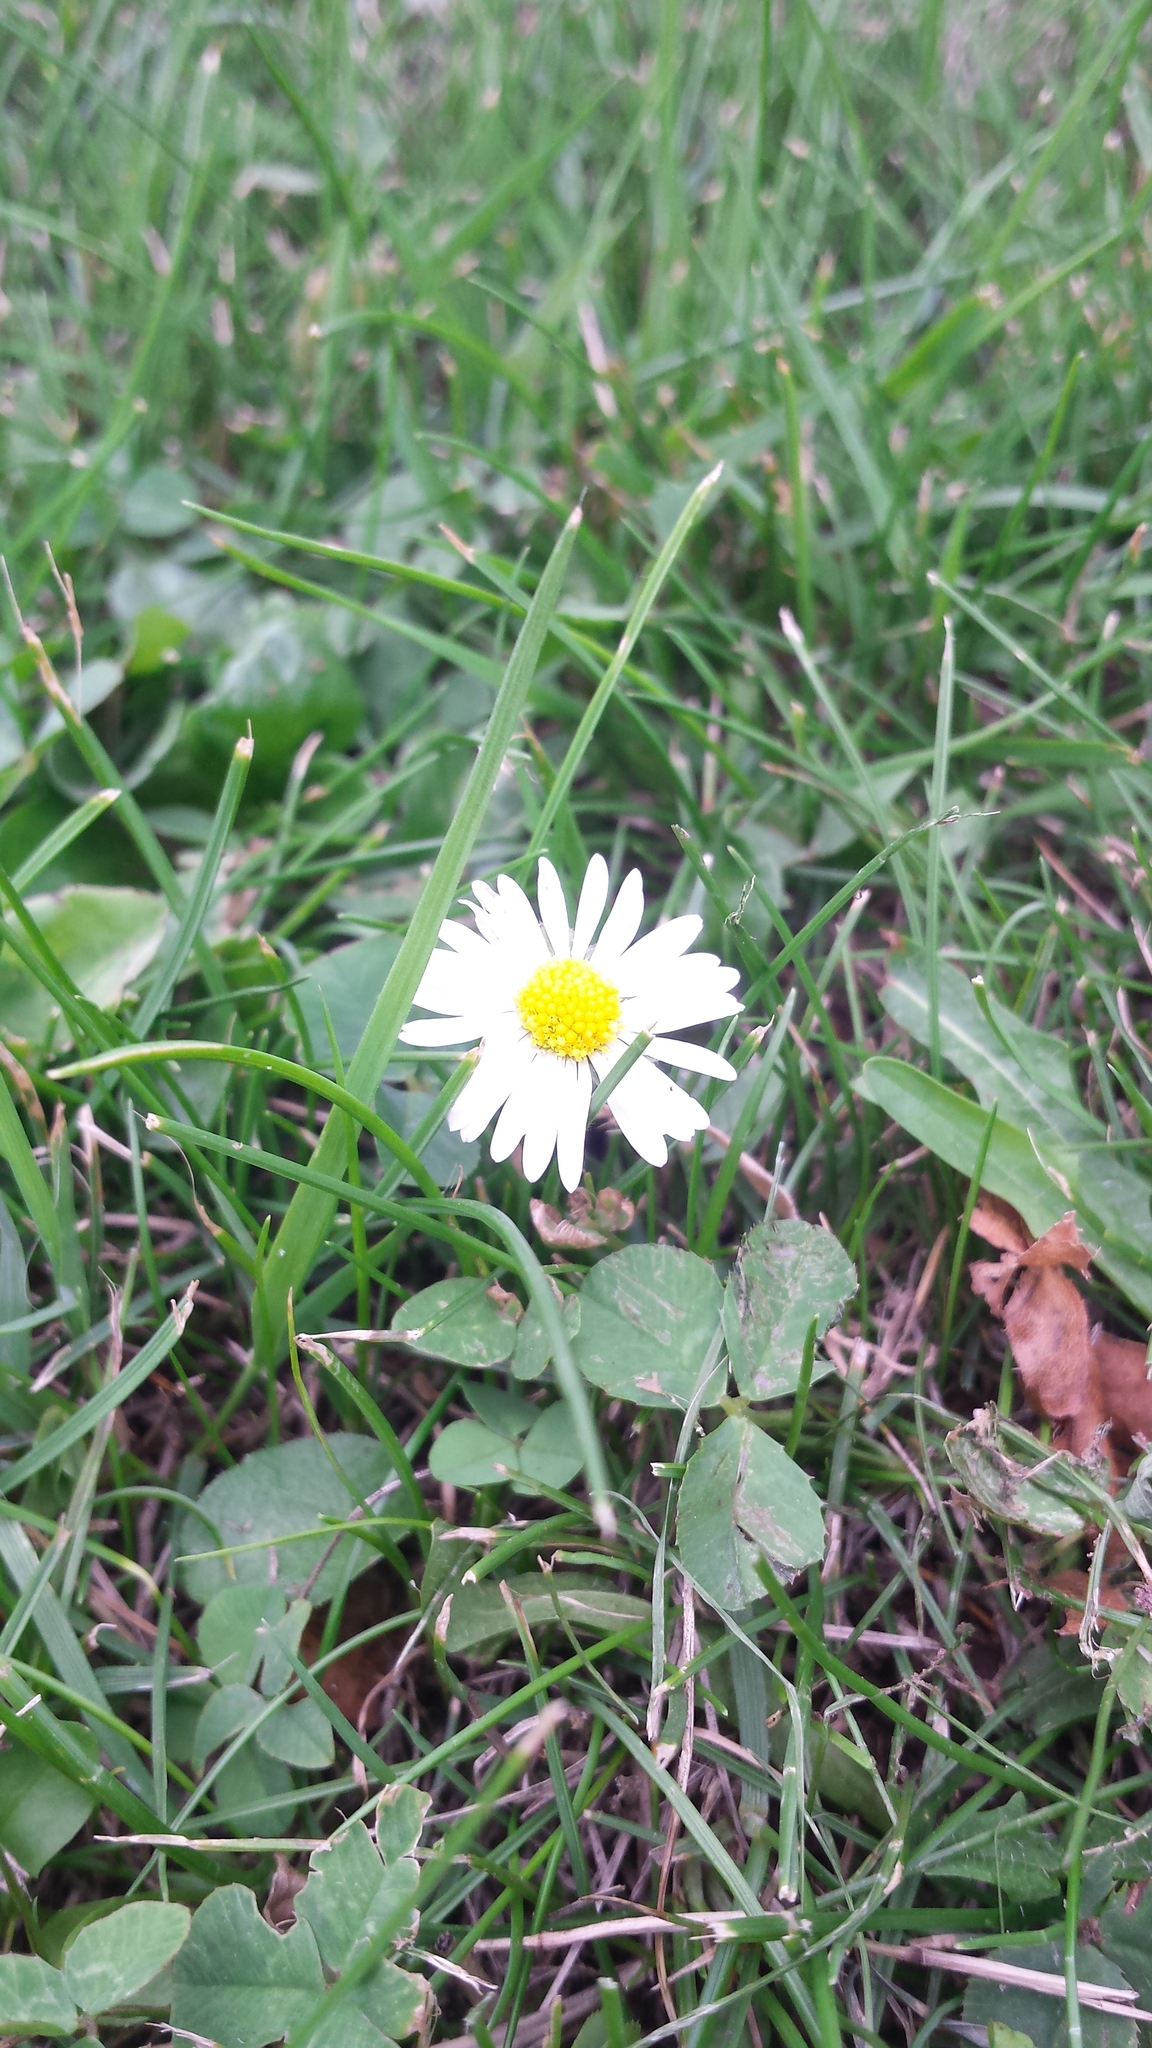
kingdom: Plantae
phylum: Tracheophyta
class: Magnoliopsida
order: Asterales
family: Asteraceae
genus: Bellis
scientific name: Bellis perennis
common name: Lawndaisy
